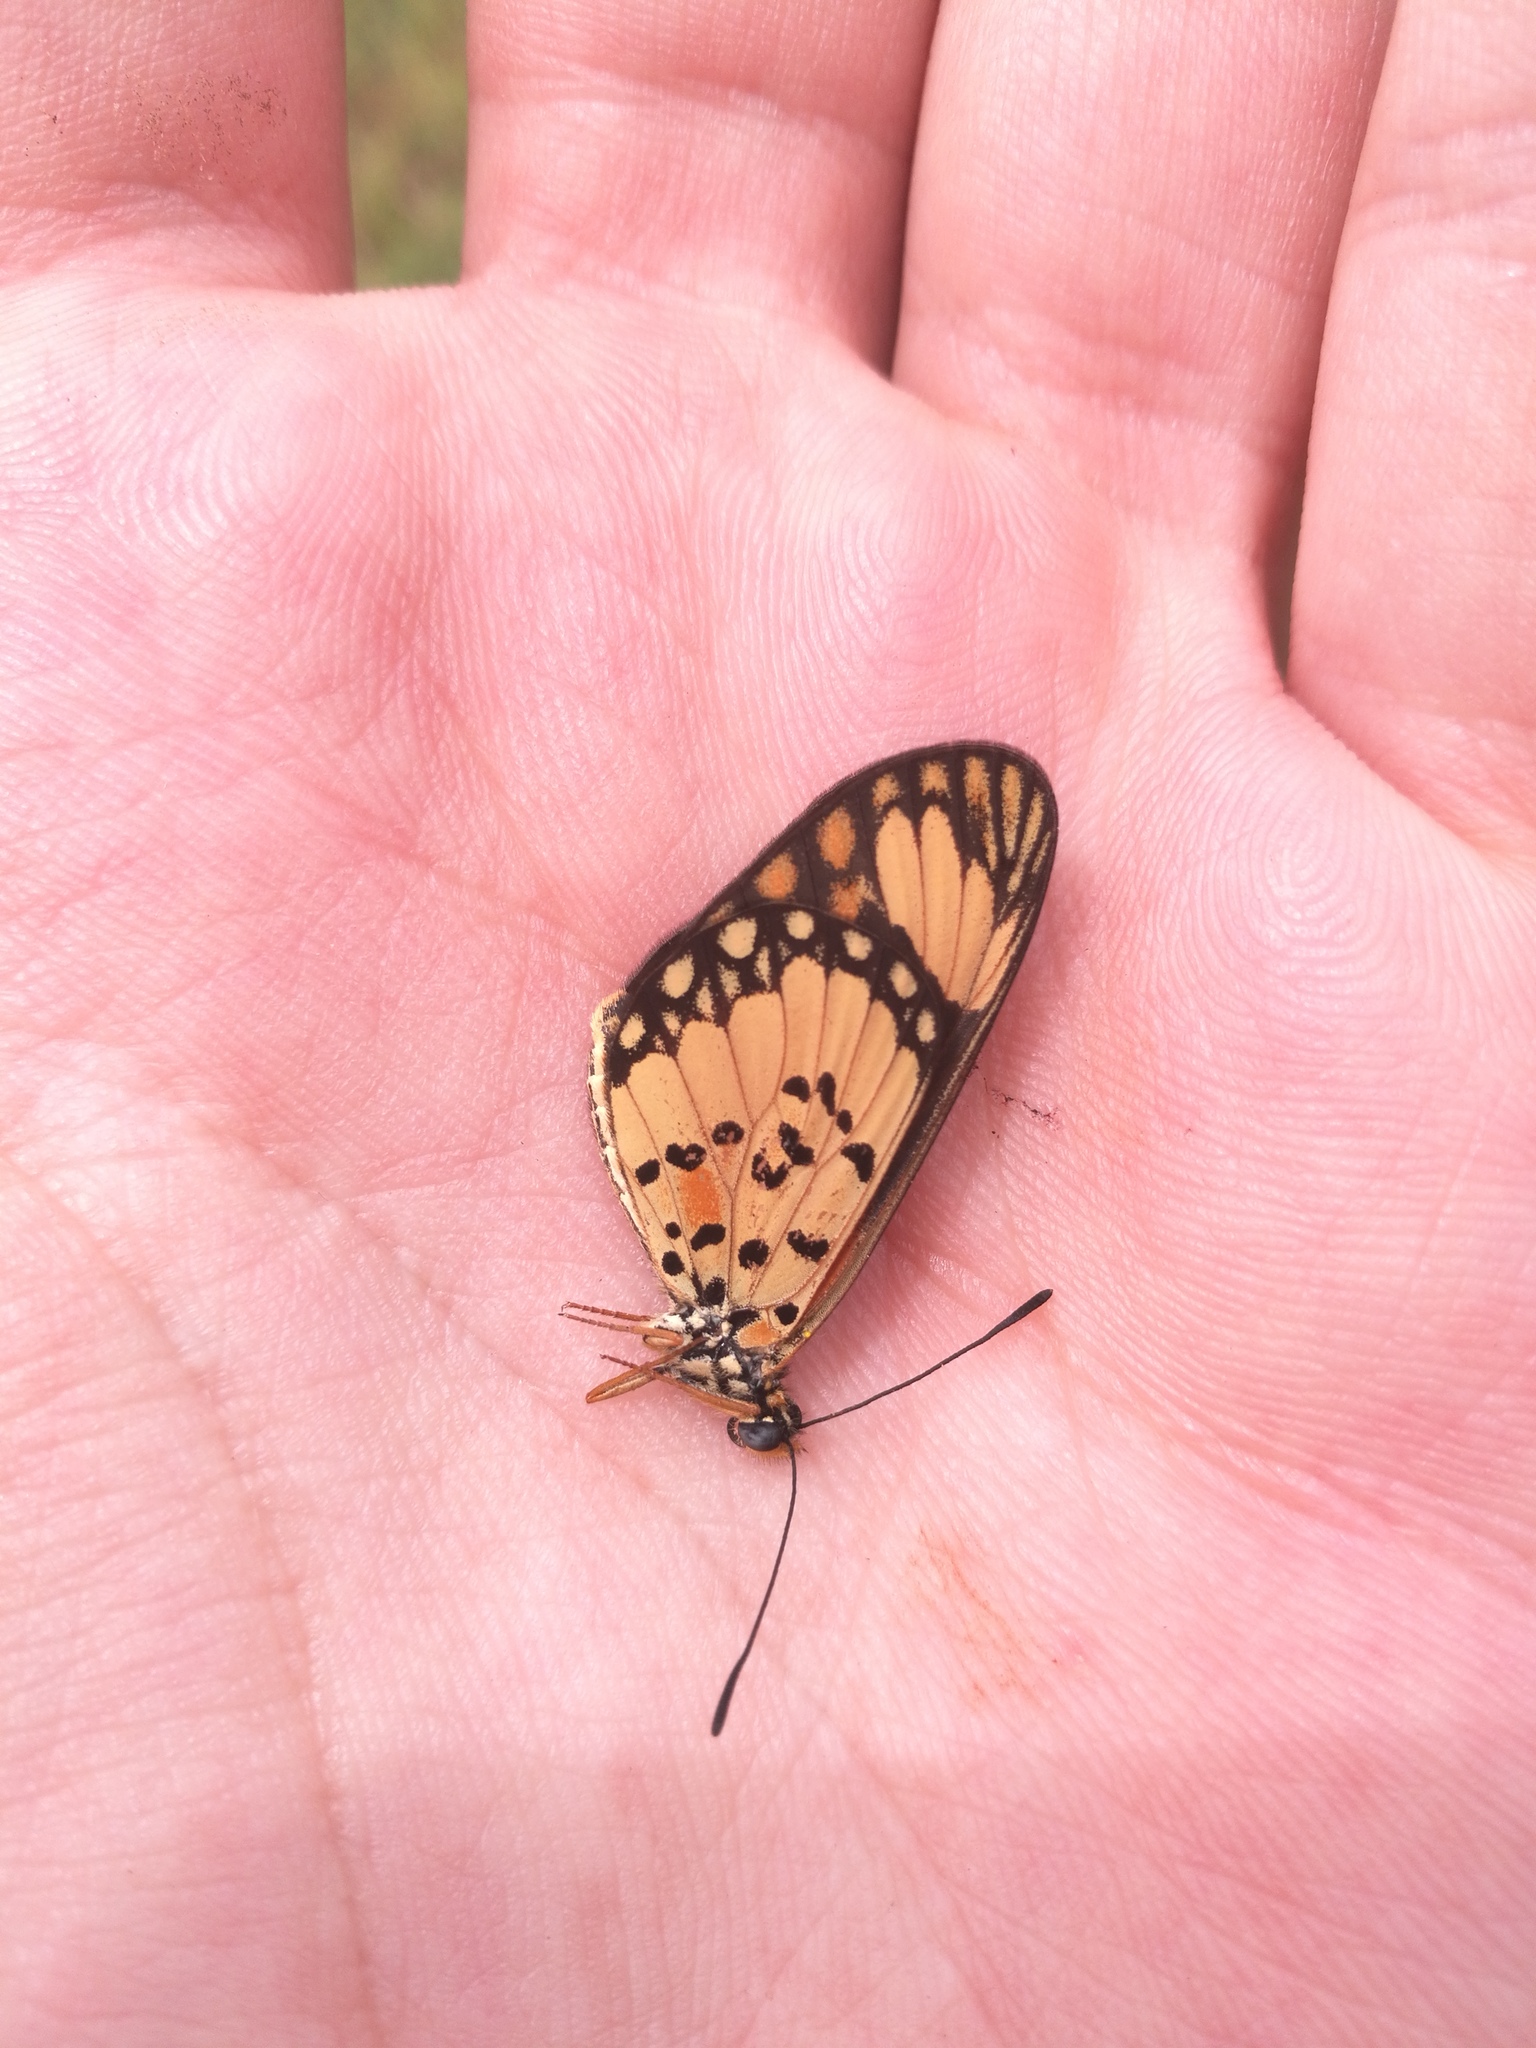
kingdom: Animalia
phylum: Arthropoda
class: Insecta
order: Lepidoptera
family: Nymphalidae
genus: Acraea
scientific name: Acraea Telchinia serena
